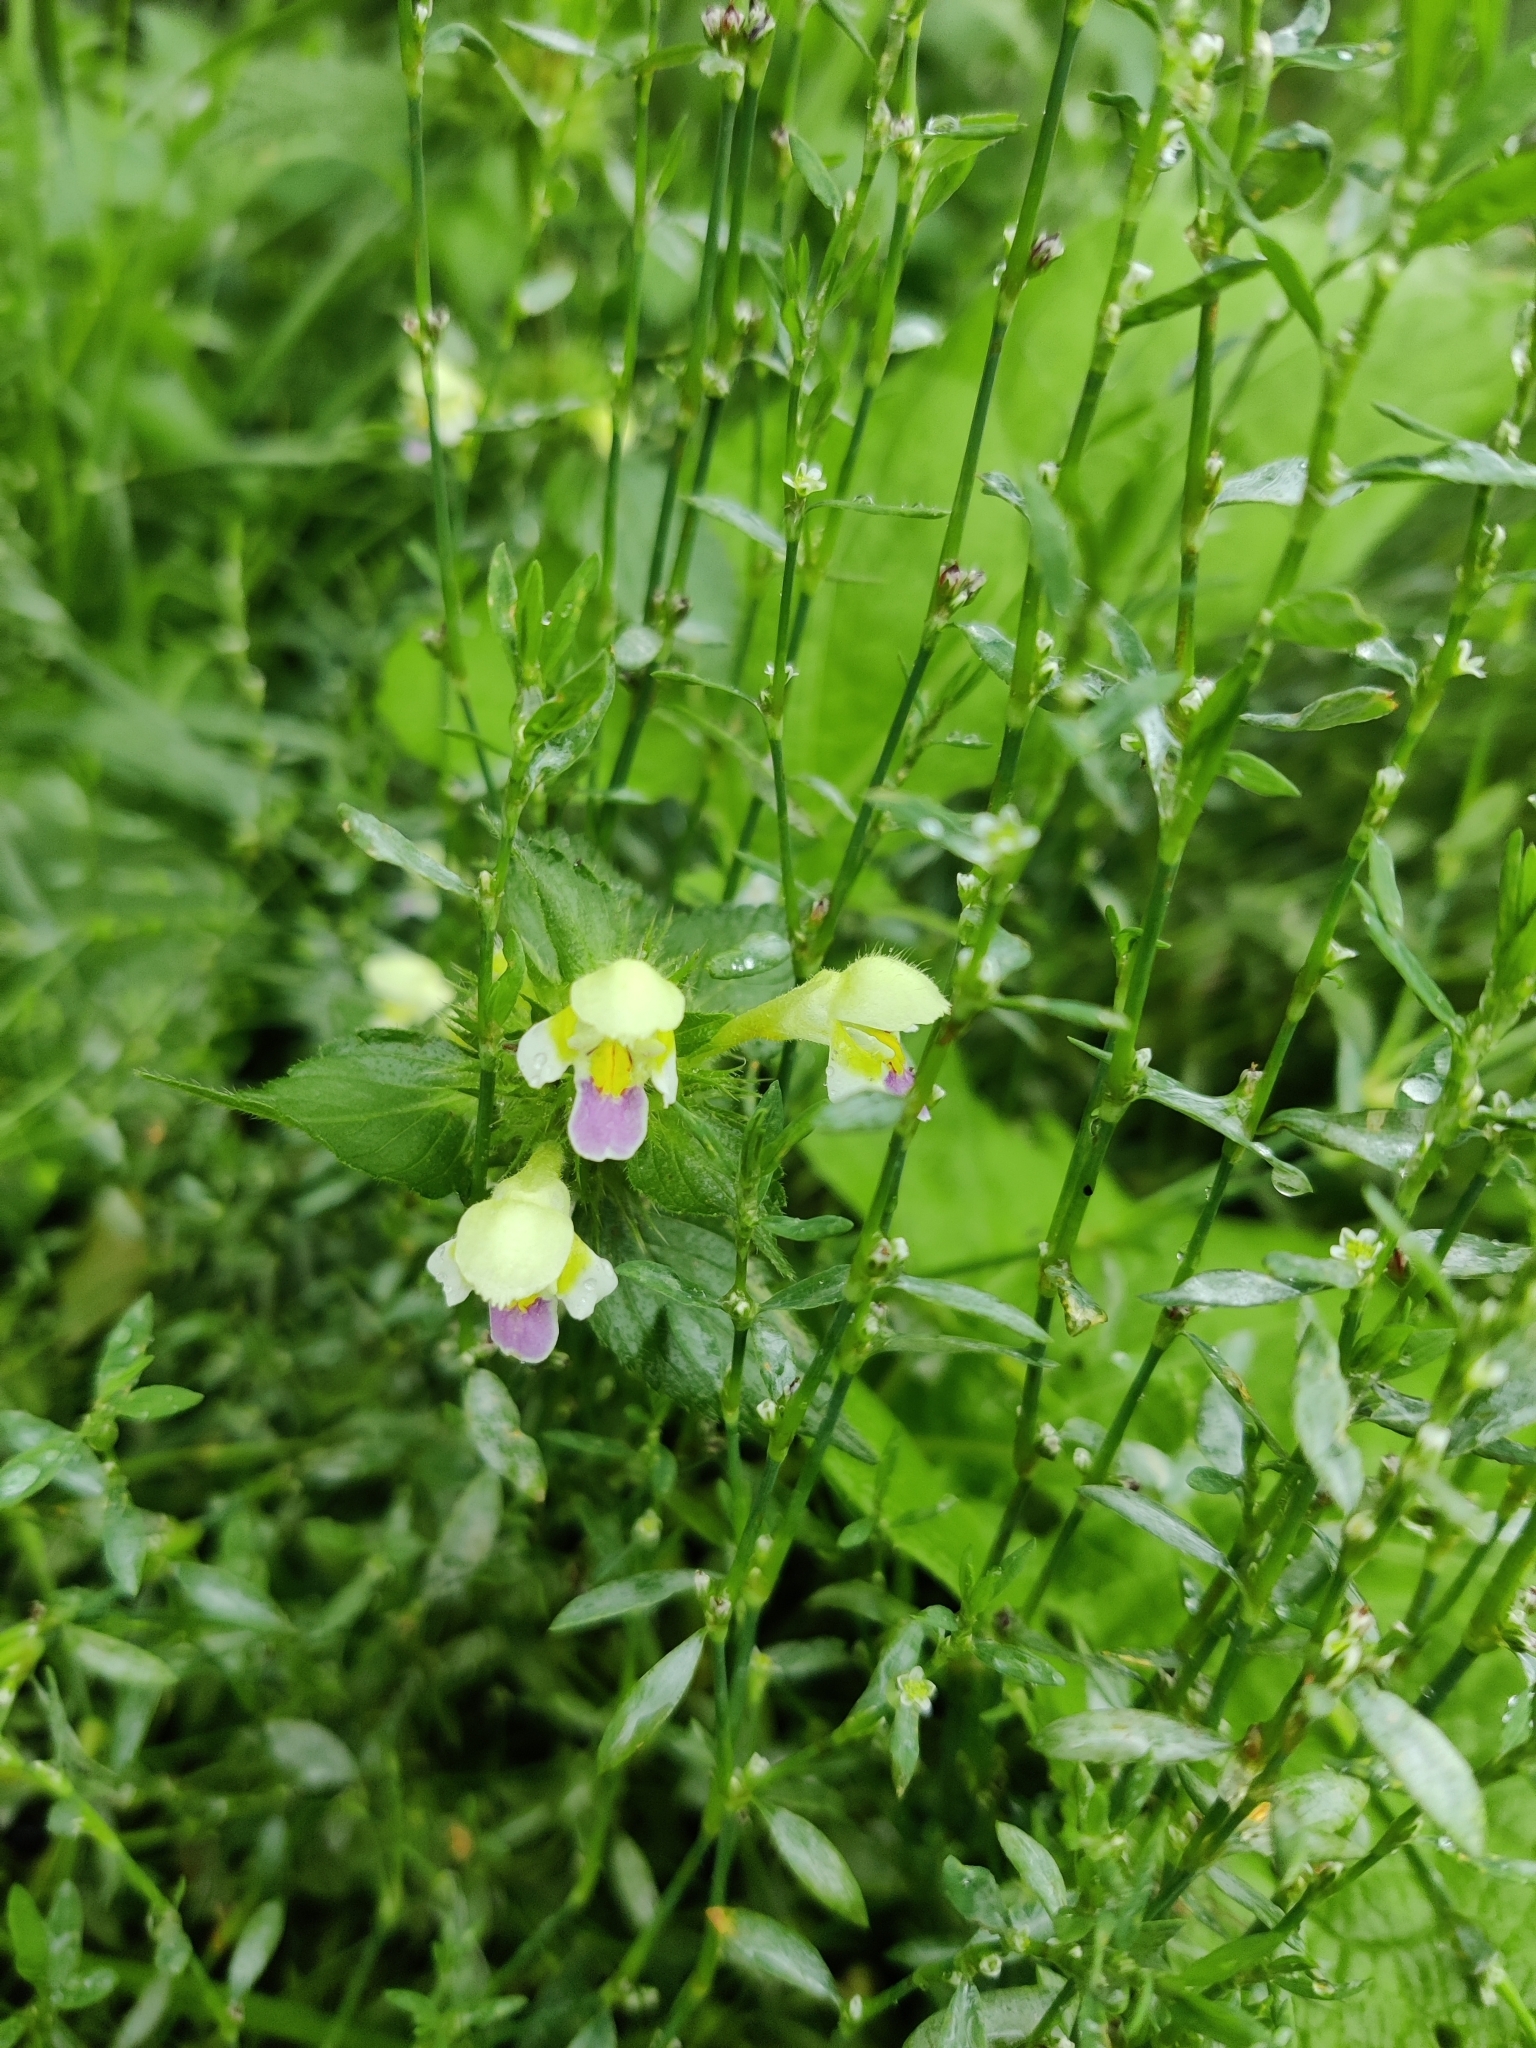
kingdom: Plantae
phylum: Tracheophyta
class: Magnoliopsida
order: Lamiales
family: Lamiaceae
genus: Galeopsis
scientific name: Galeopsis speciosa
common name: Large-flowered hemp-nettle
